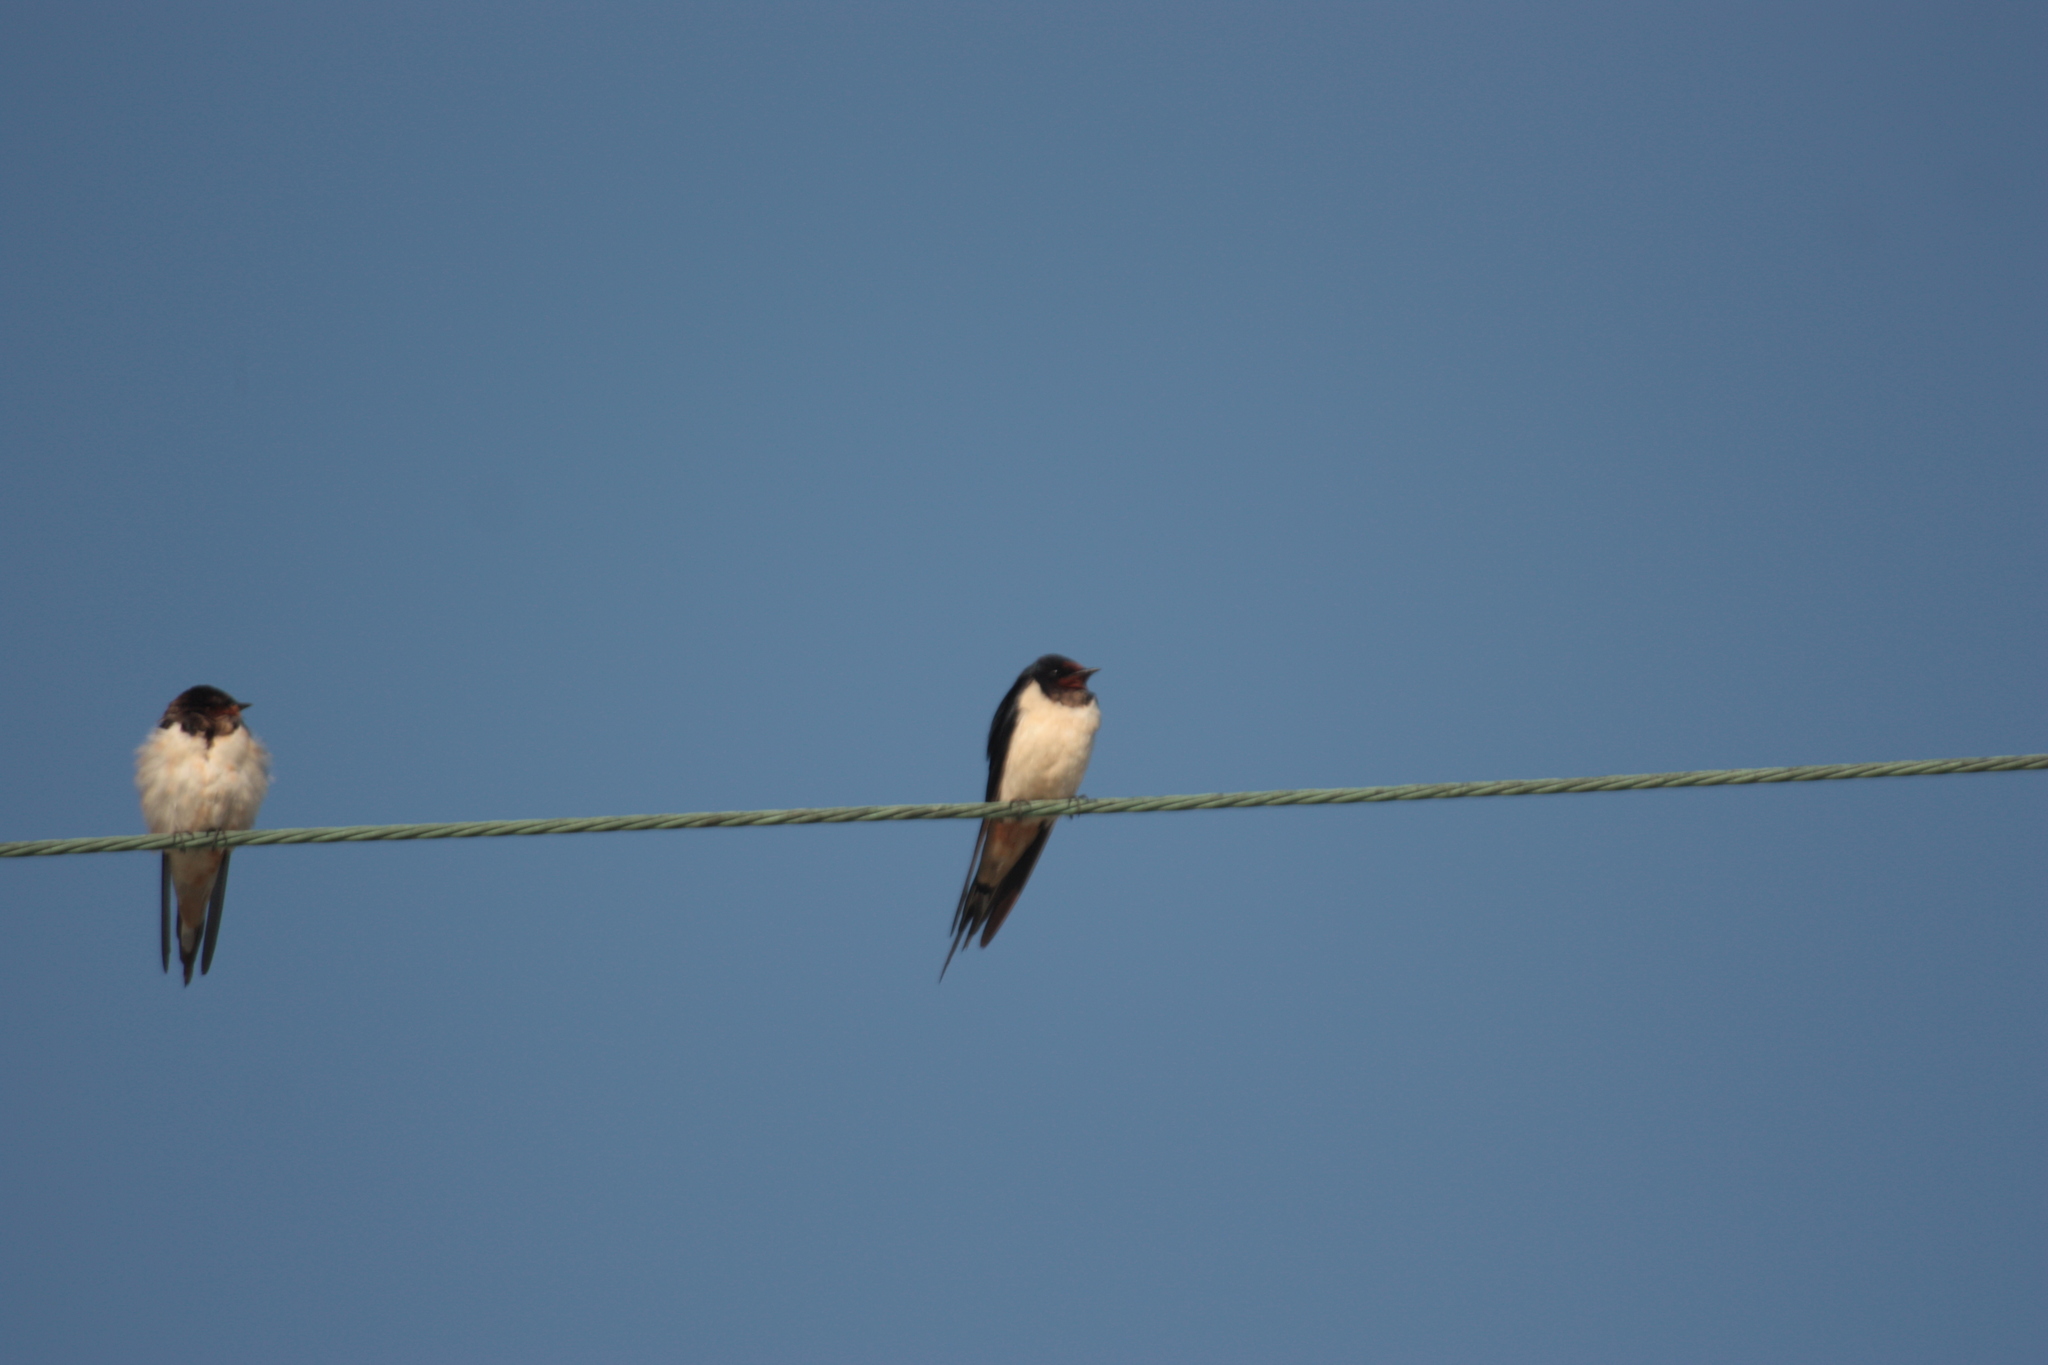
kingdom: Animalia
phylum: Chordata
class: Aves
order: Passeriformes
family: Hirundinidae
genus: Hirundo
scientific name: Hirundo rustica
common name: Barn swallow
